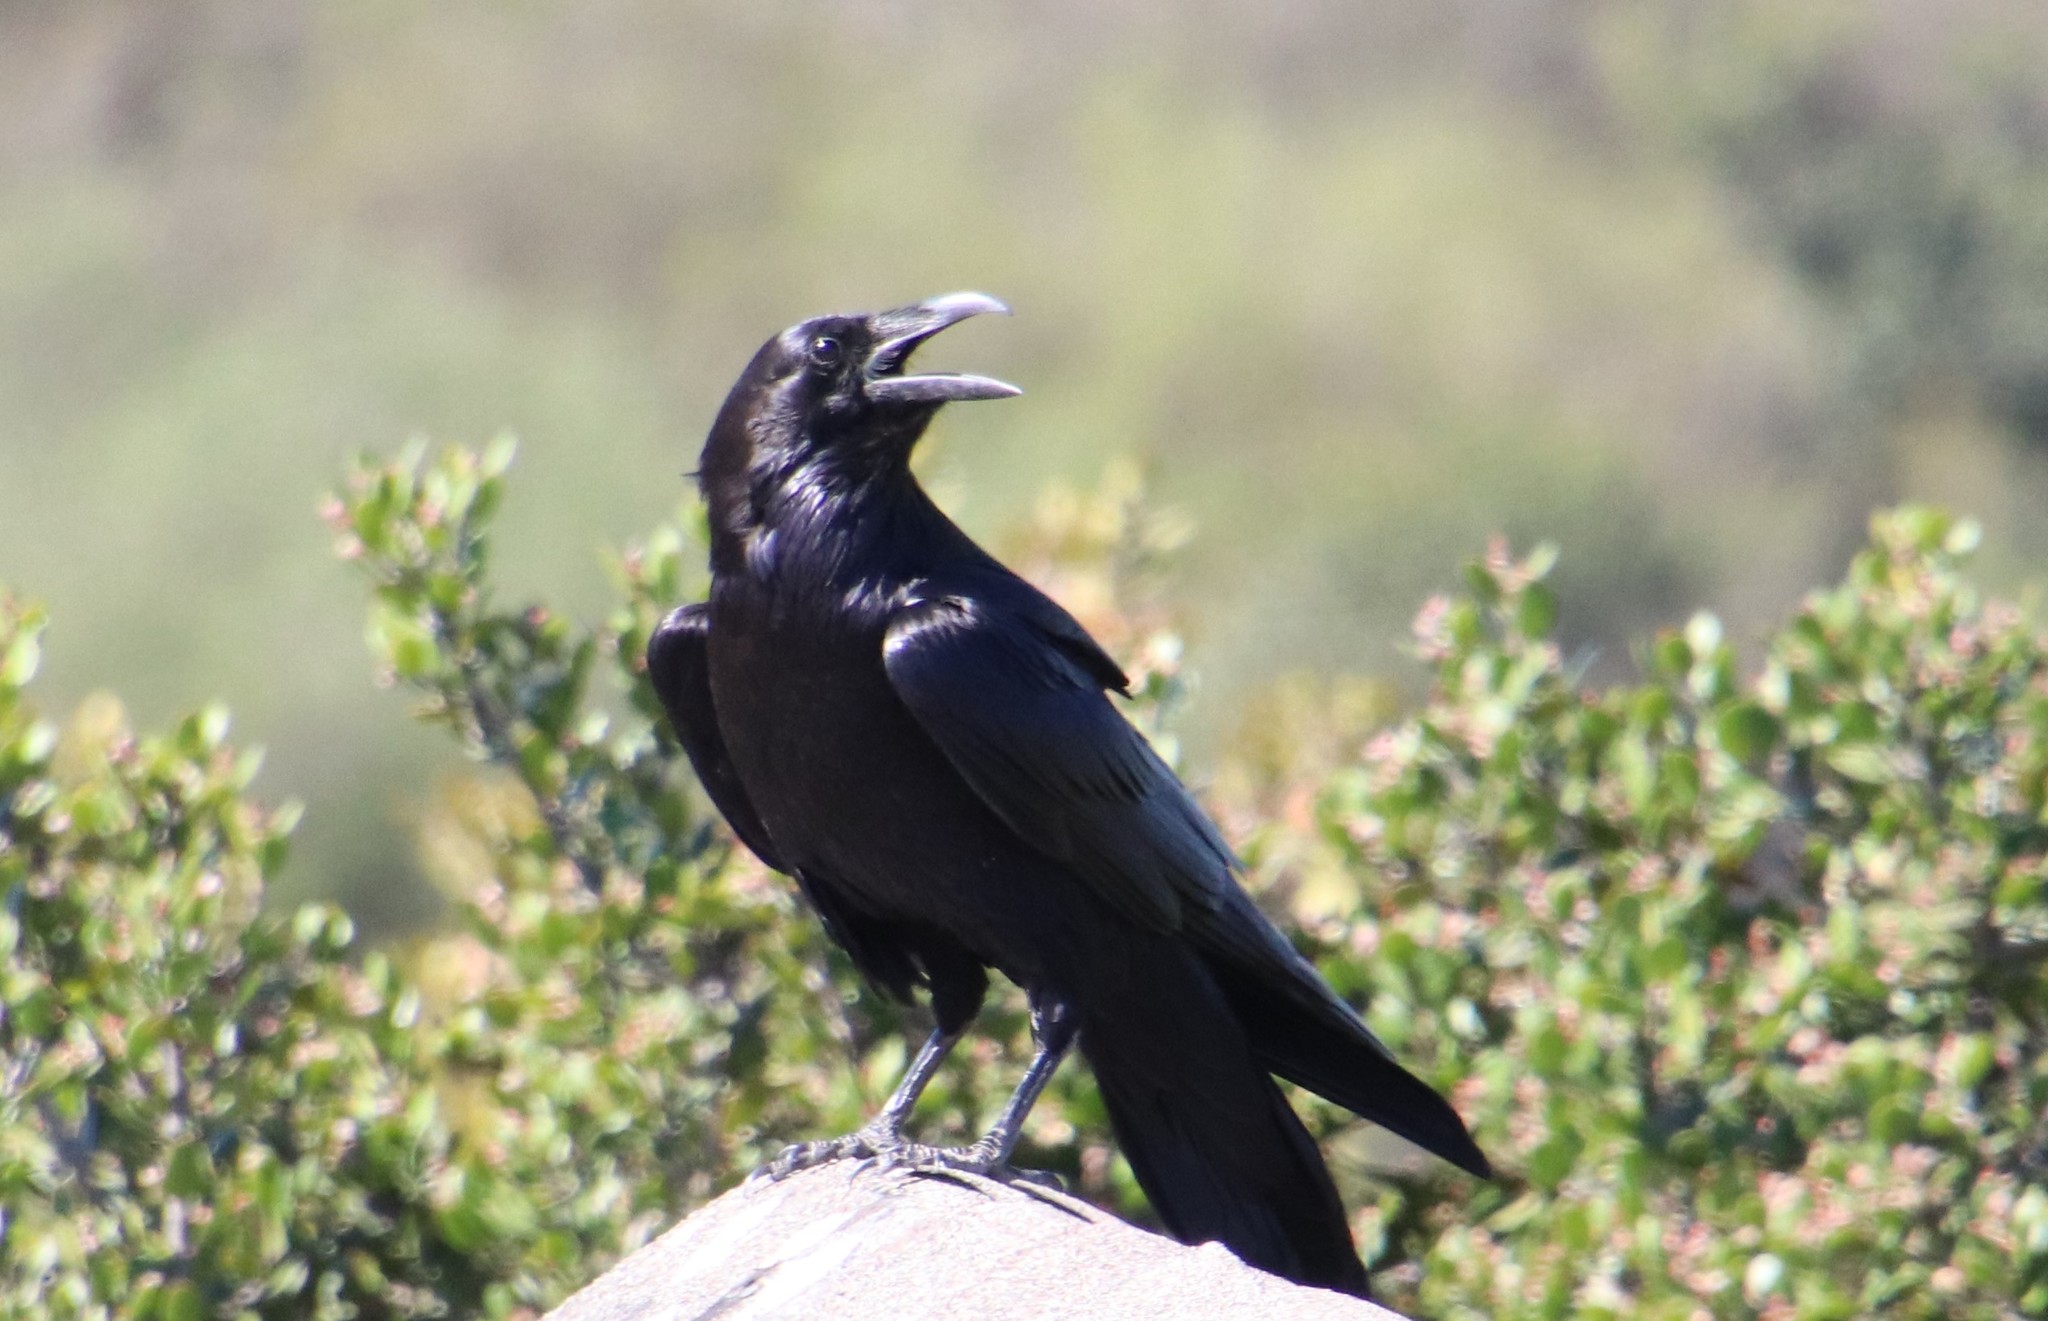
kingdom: Animalia
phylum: Chordata
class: Aves
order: Passeriformes
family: Corvidae
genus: Corvus
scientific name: Corvus corax
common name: Common raven
